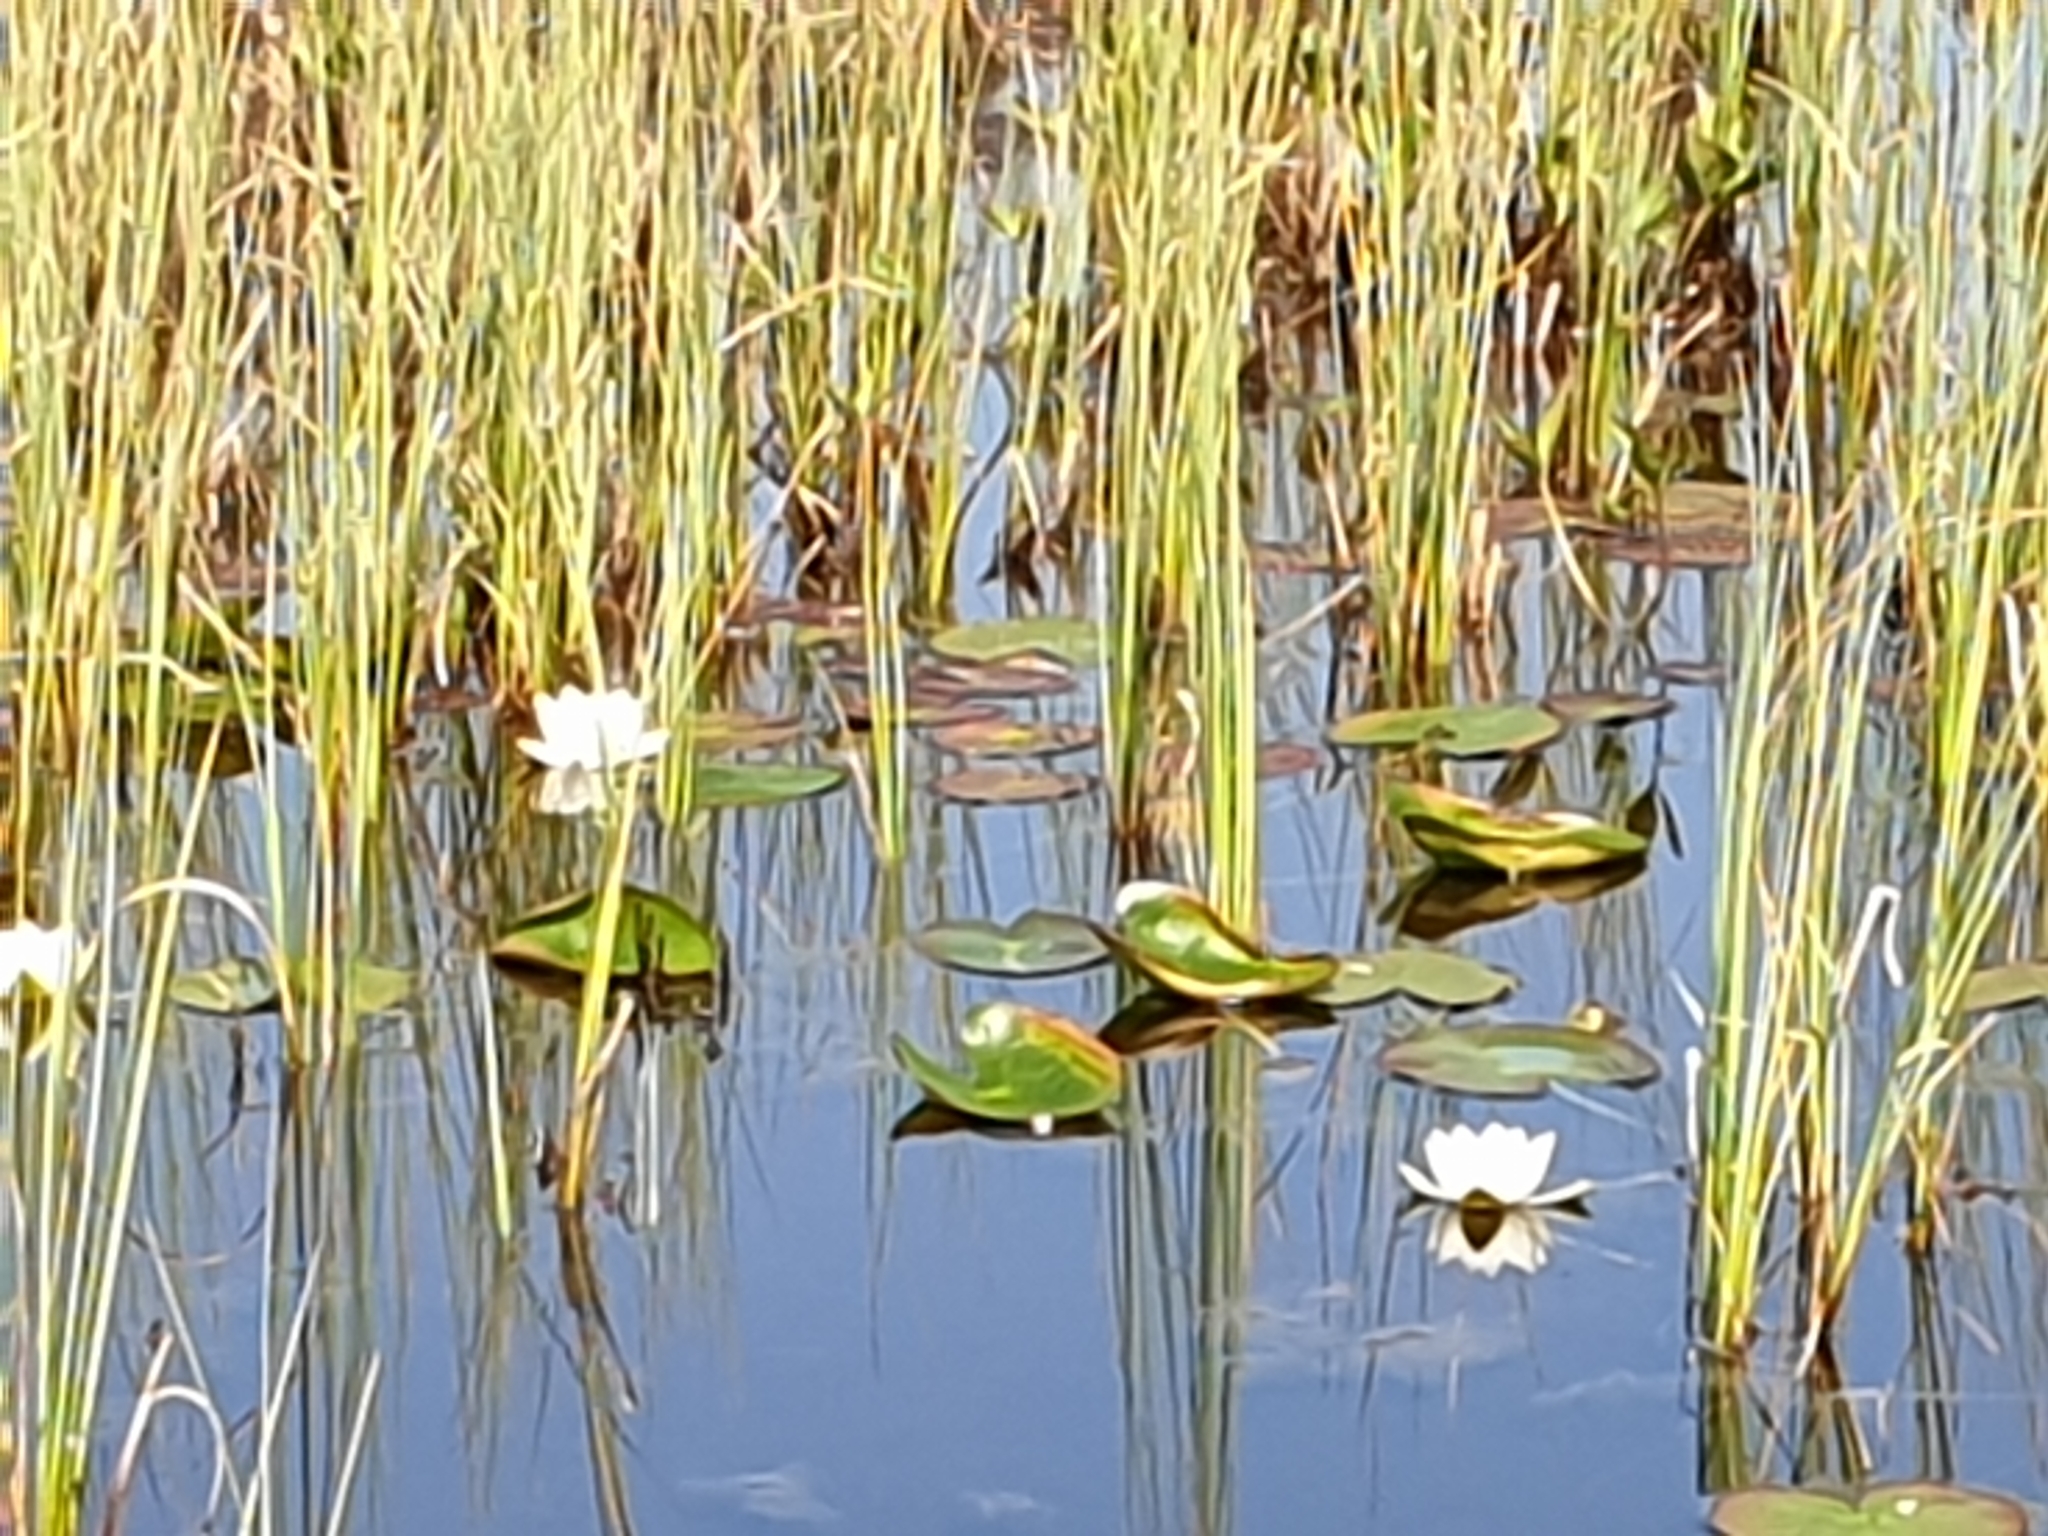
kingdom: Plantae
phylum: Tracheophyta
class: Magnoliopsida
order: Nymphaeales
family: Nymphaeaceae
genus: Nymphaea
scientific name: Nymphaea alba
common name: White water-lily
